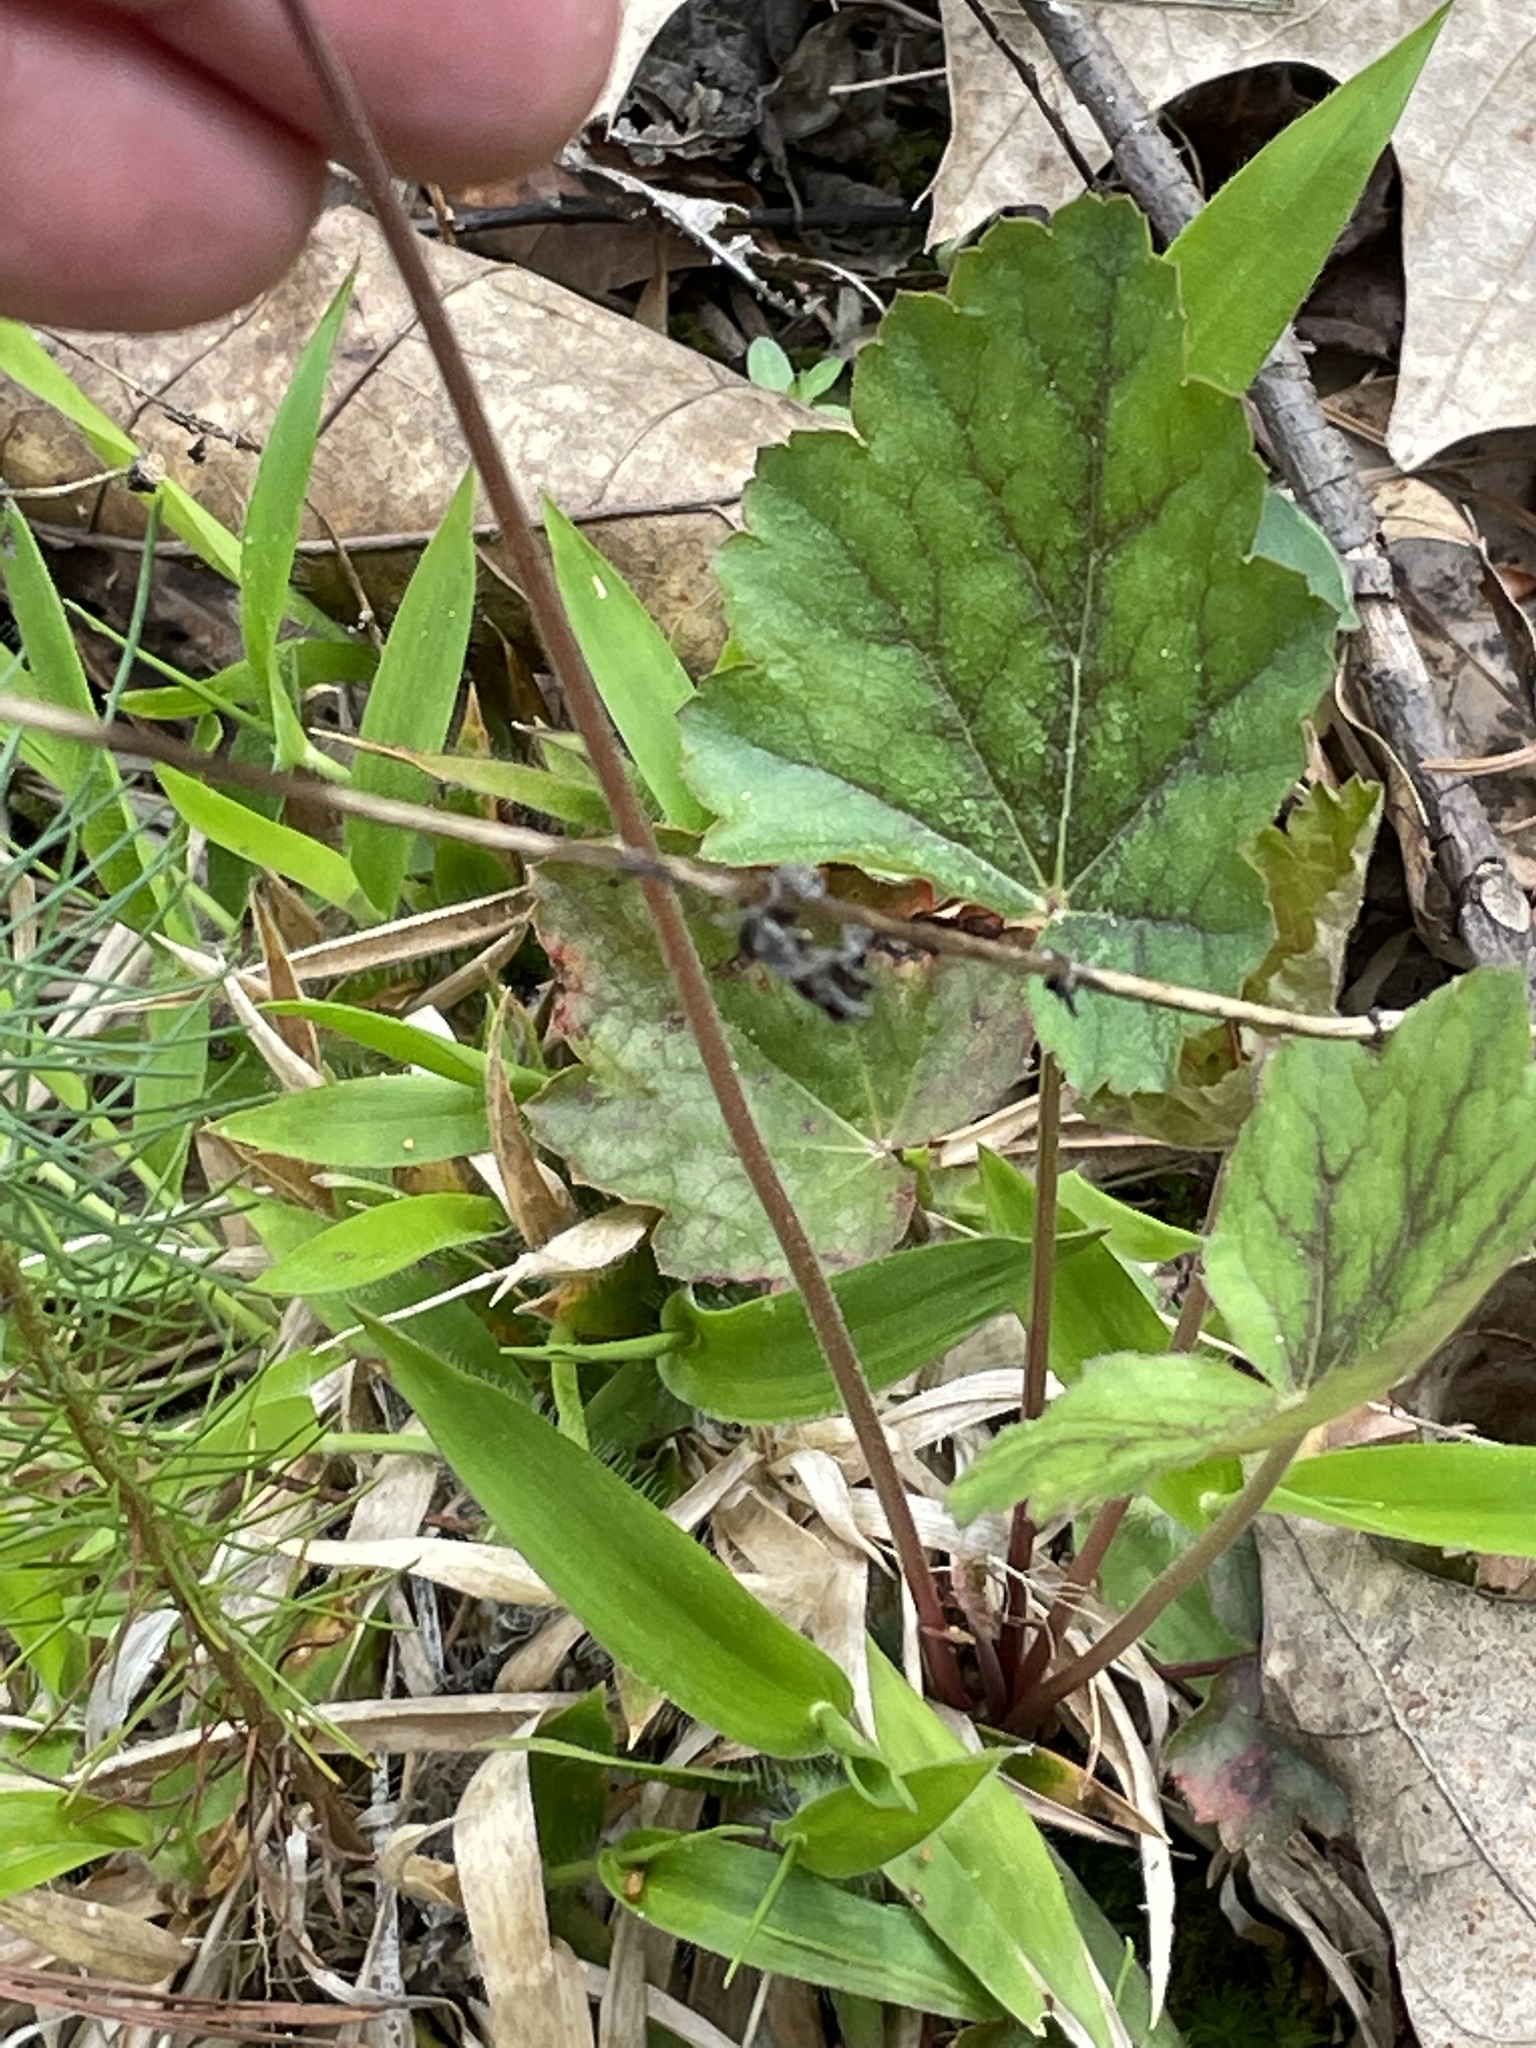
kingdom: Plantae
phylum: Tracheophyta
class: Magnoliopsida
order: Saxifragales
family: Saxifragaceae
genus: Heuchera
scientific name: Heuchera caroliniana
